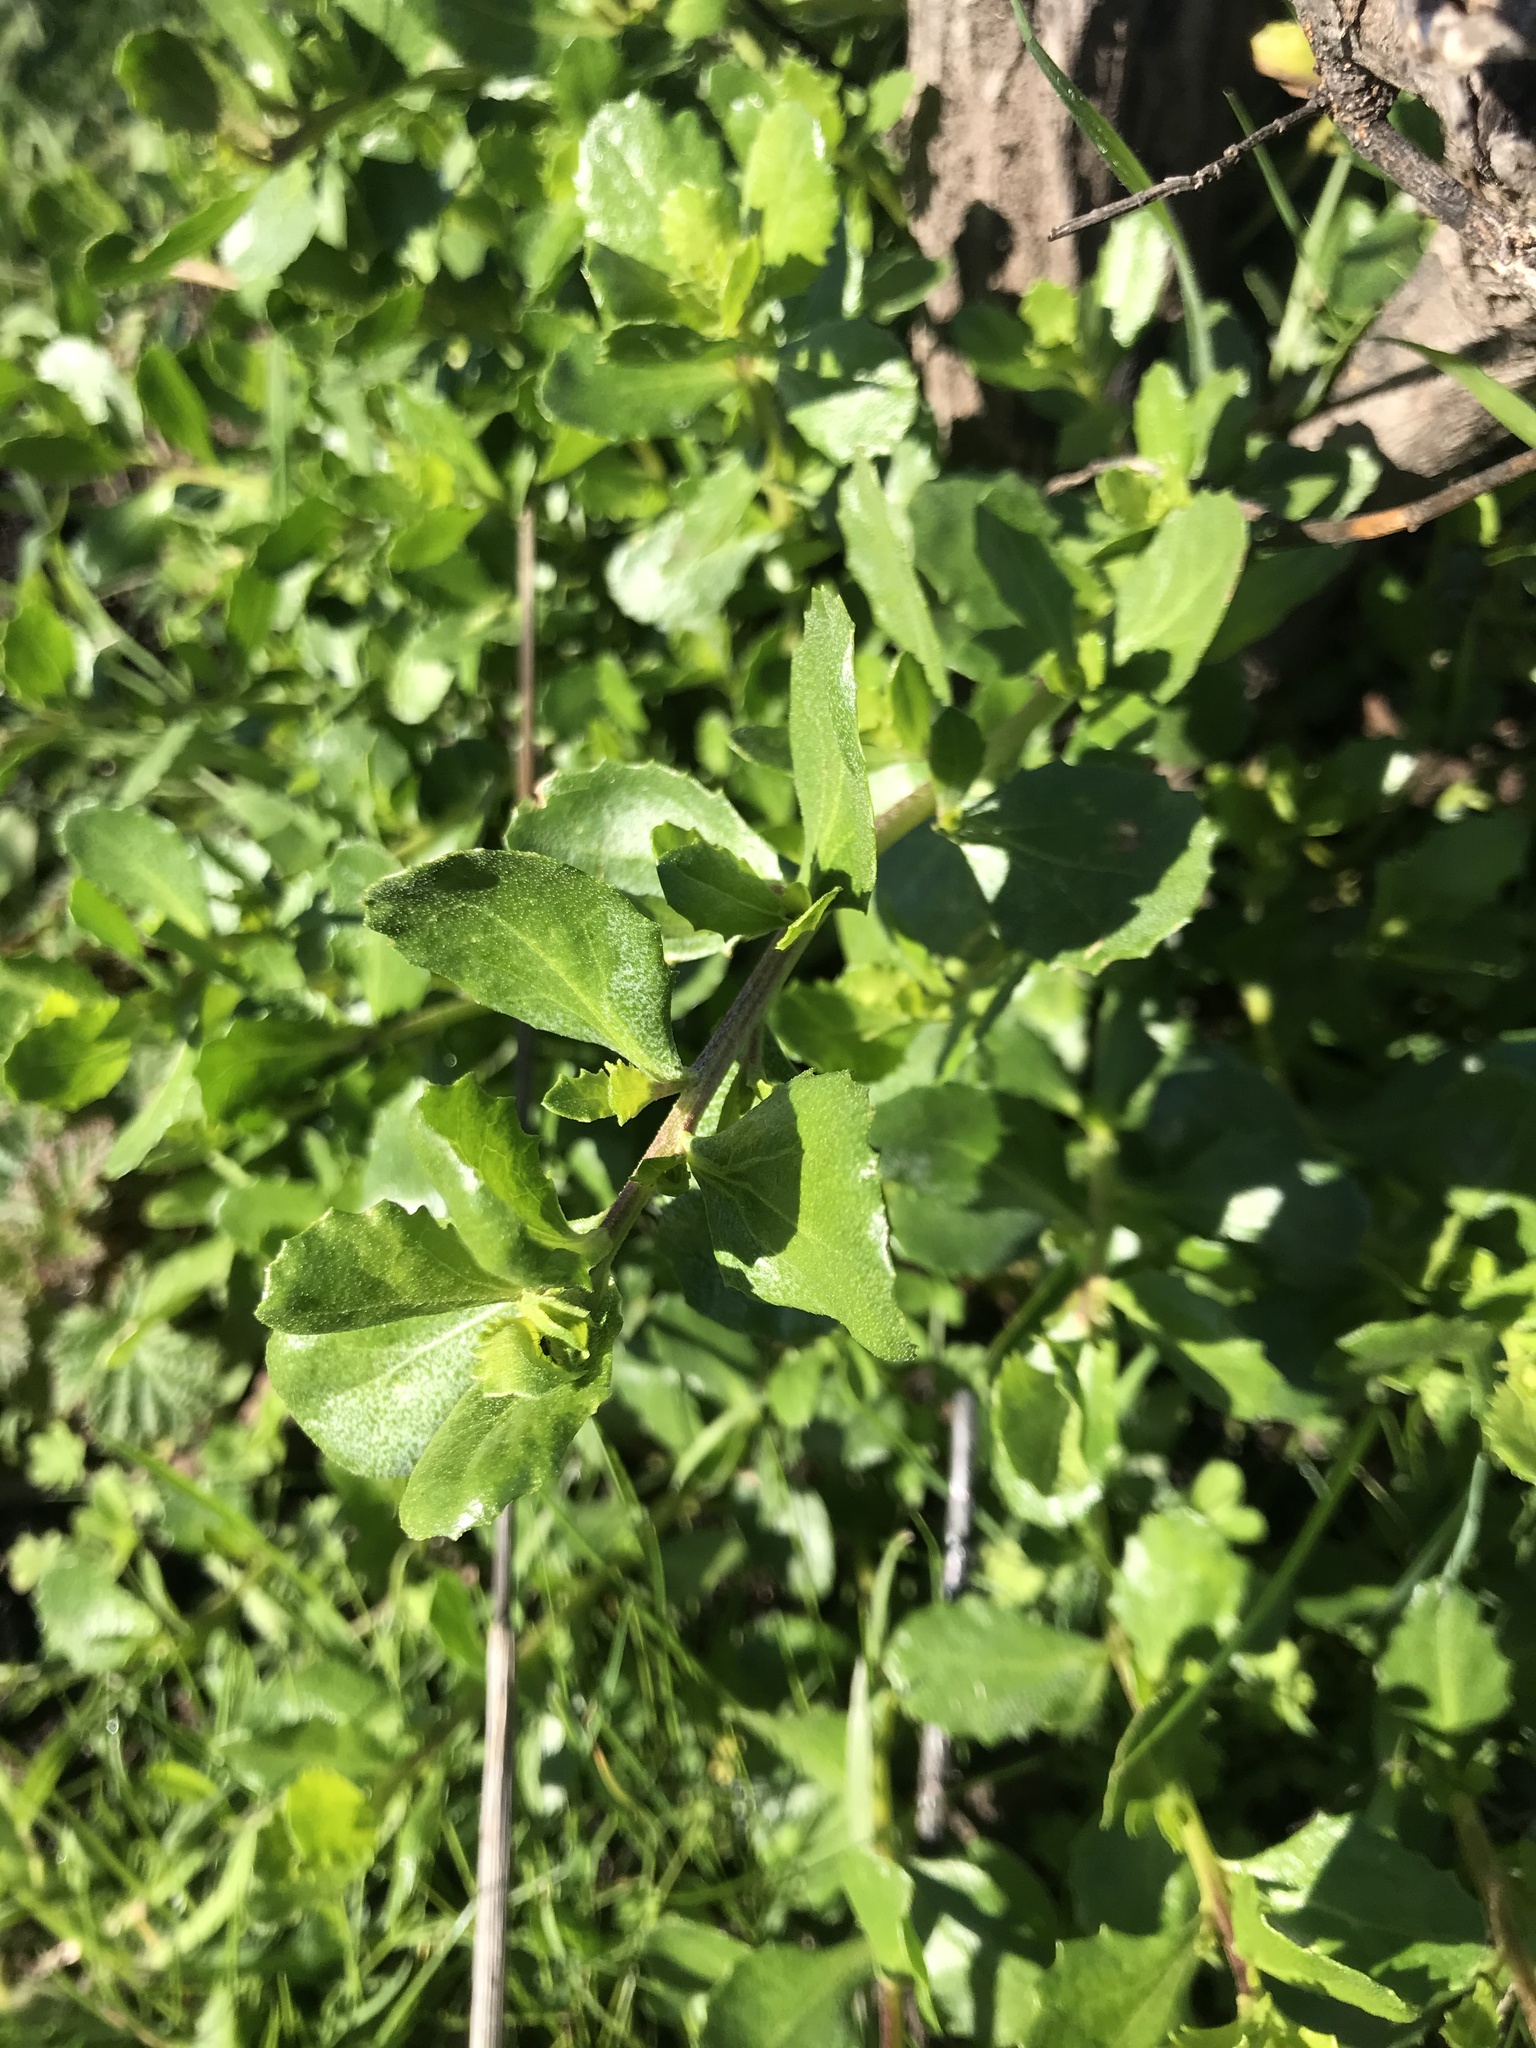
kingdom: Plantae
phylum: Tracheophyta
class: Magnoliopsida
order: Asterales
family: Asteraceae
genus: Baccharis
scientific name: Baccharis pilularis
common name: Coyotebrush
